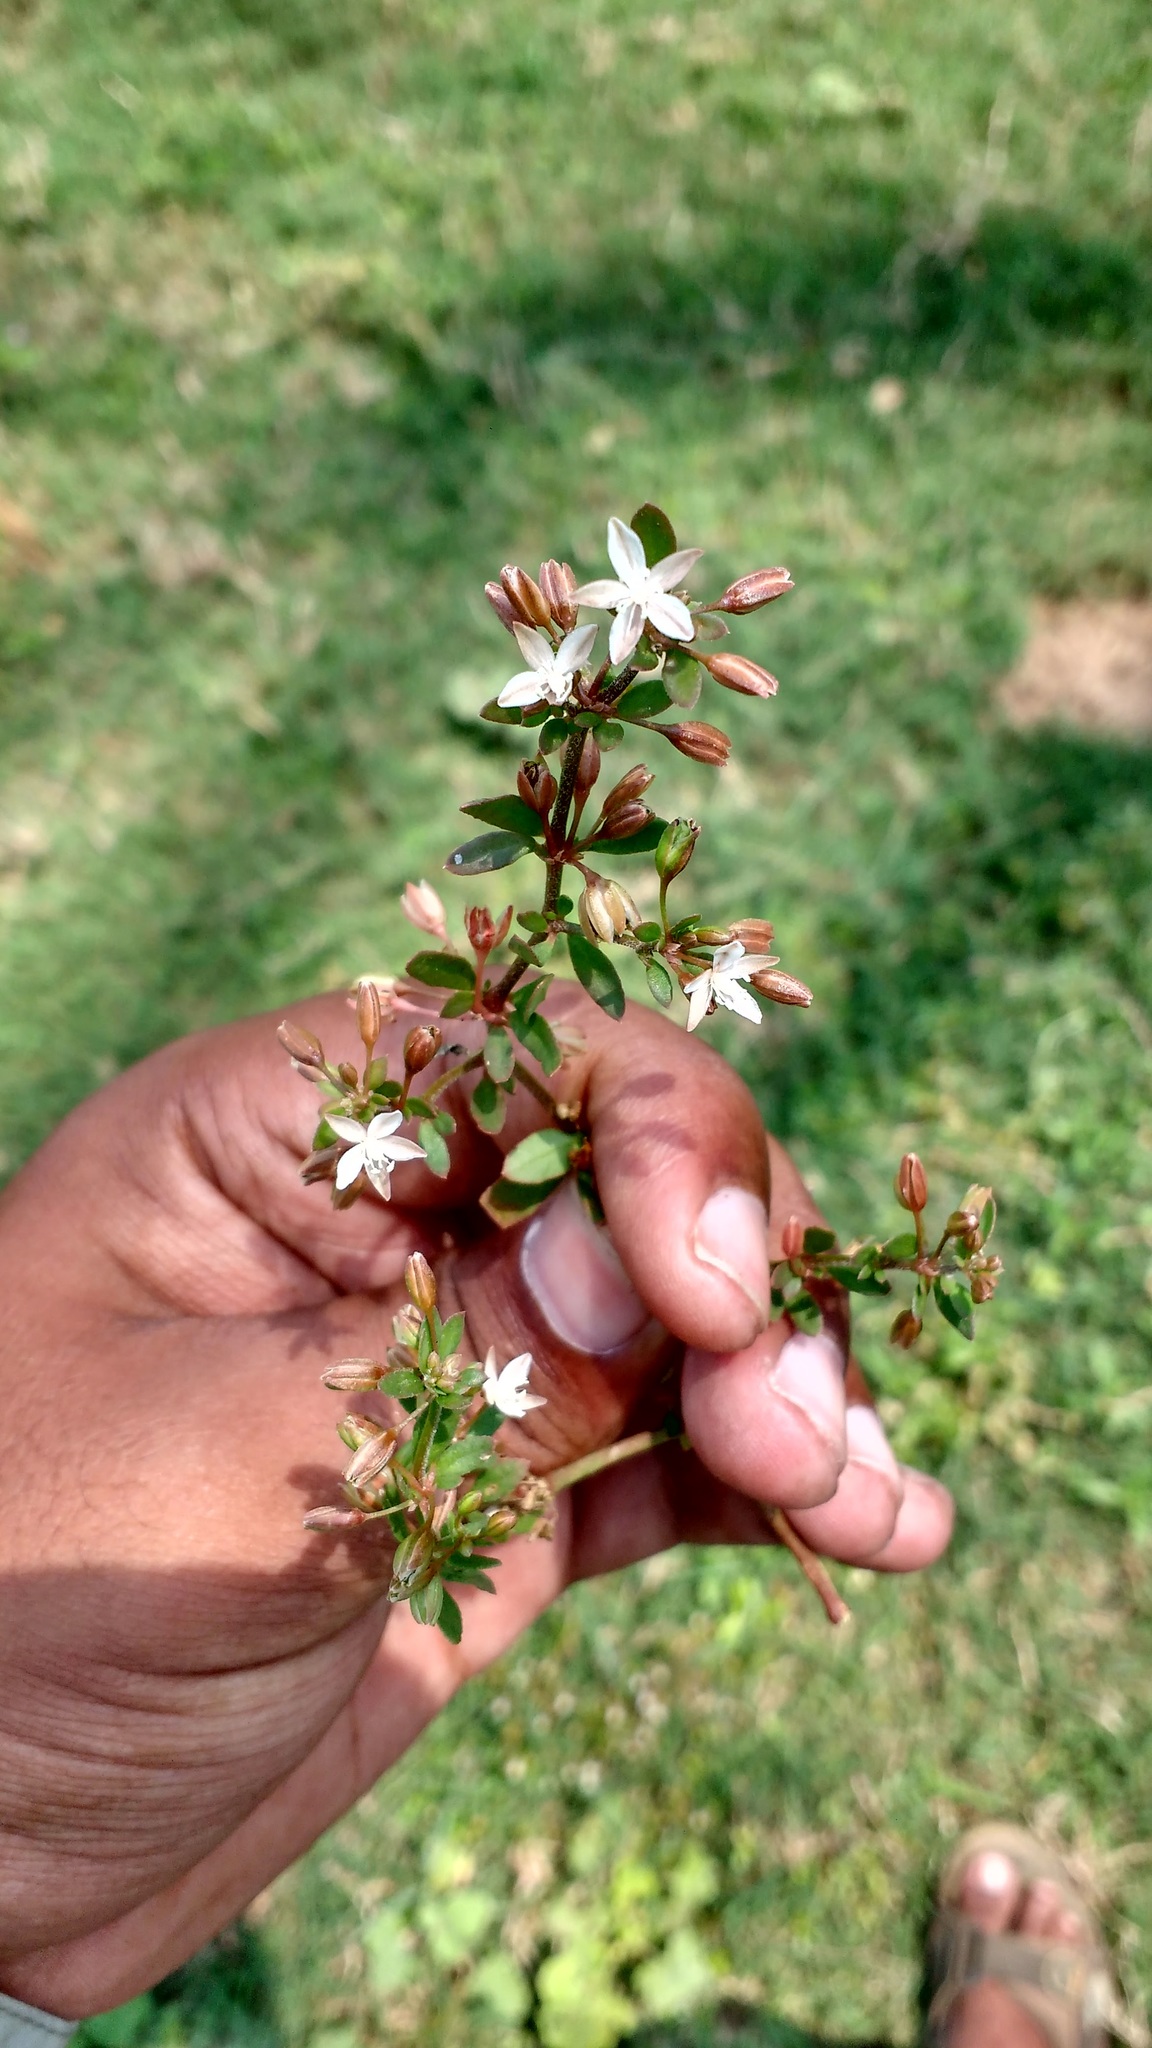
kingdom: Plantae
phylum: Tracheophyta
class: Magnoliopsida
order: Caryophyllales
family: Molluginaceae
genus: Glinus
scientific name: Glinus oppositifolius
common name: Slender carpetweed
